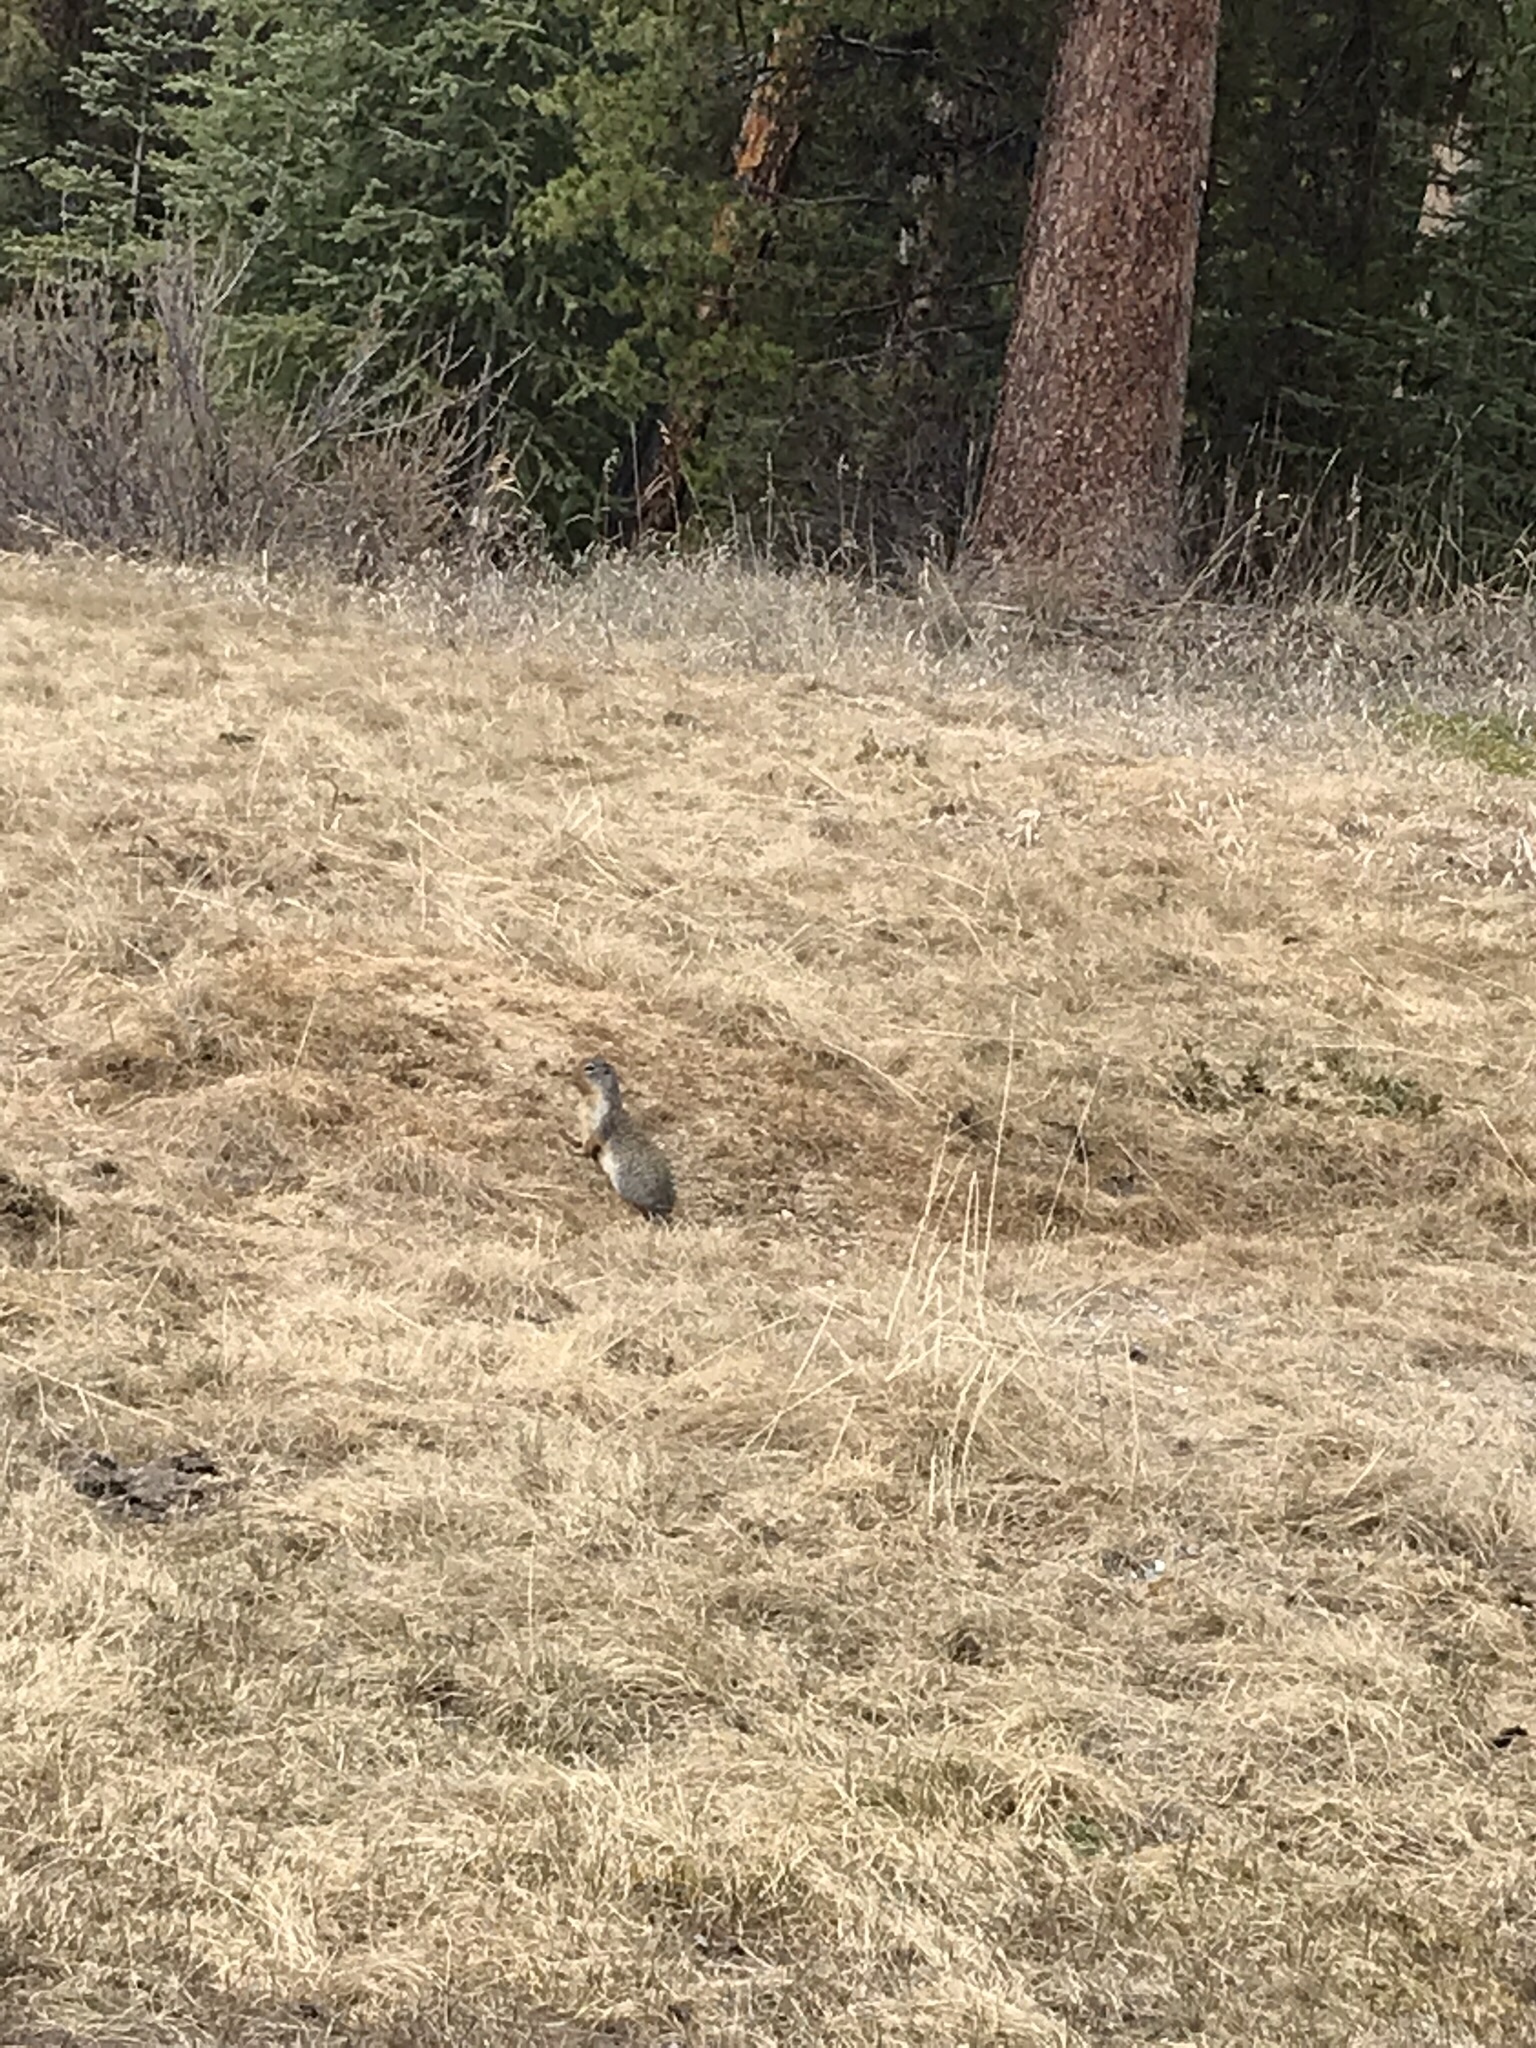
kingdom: Animalia
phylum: Chordata
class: Mammalia
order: Rodentia
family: Sciuridae
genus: Urocitellus
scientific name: Urocitellus columbianus
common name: Columbian ground squirrel
